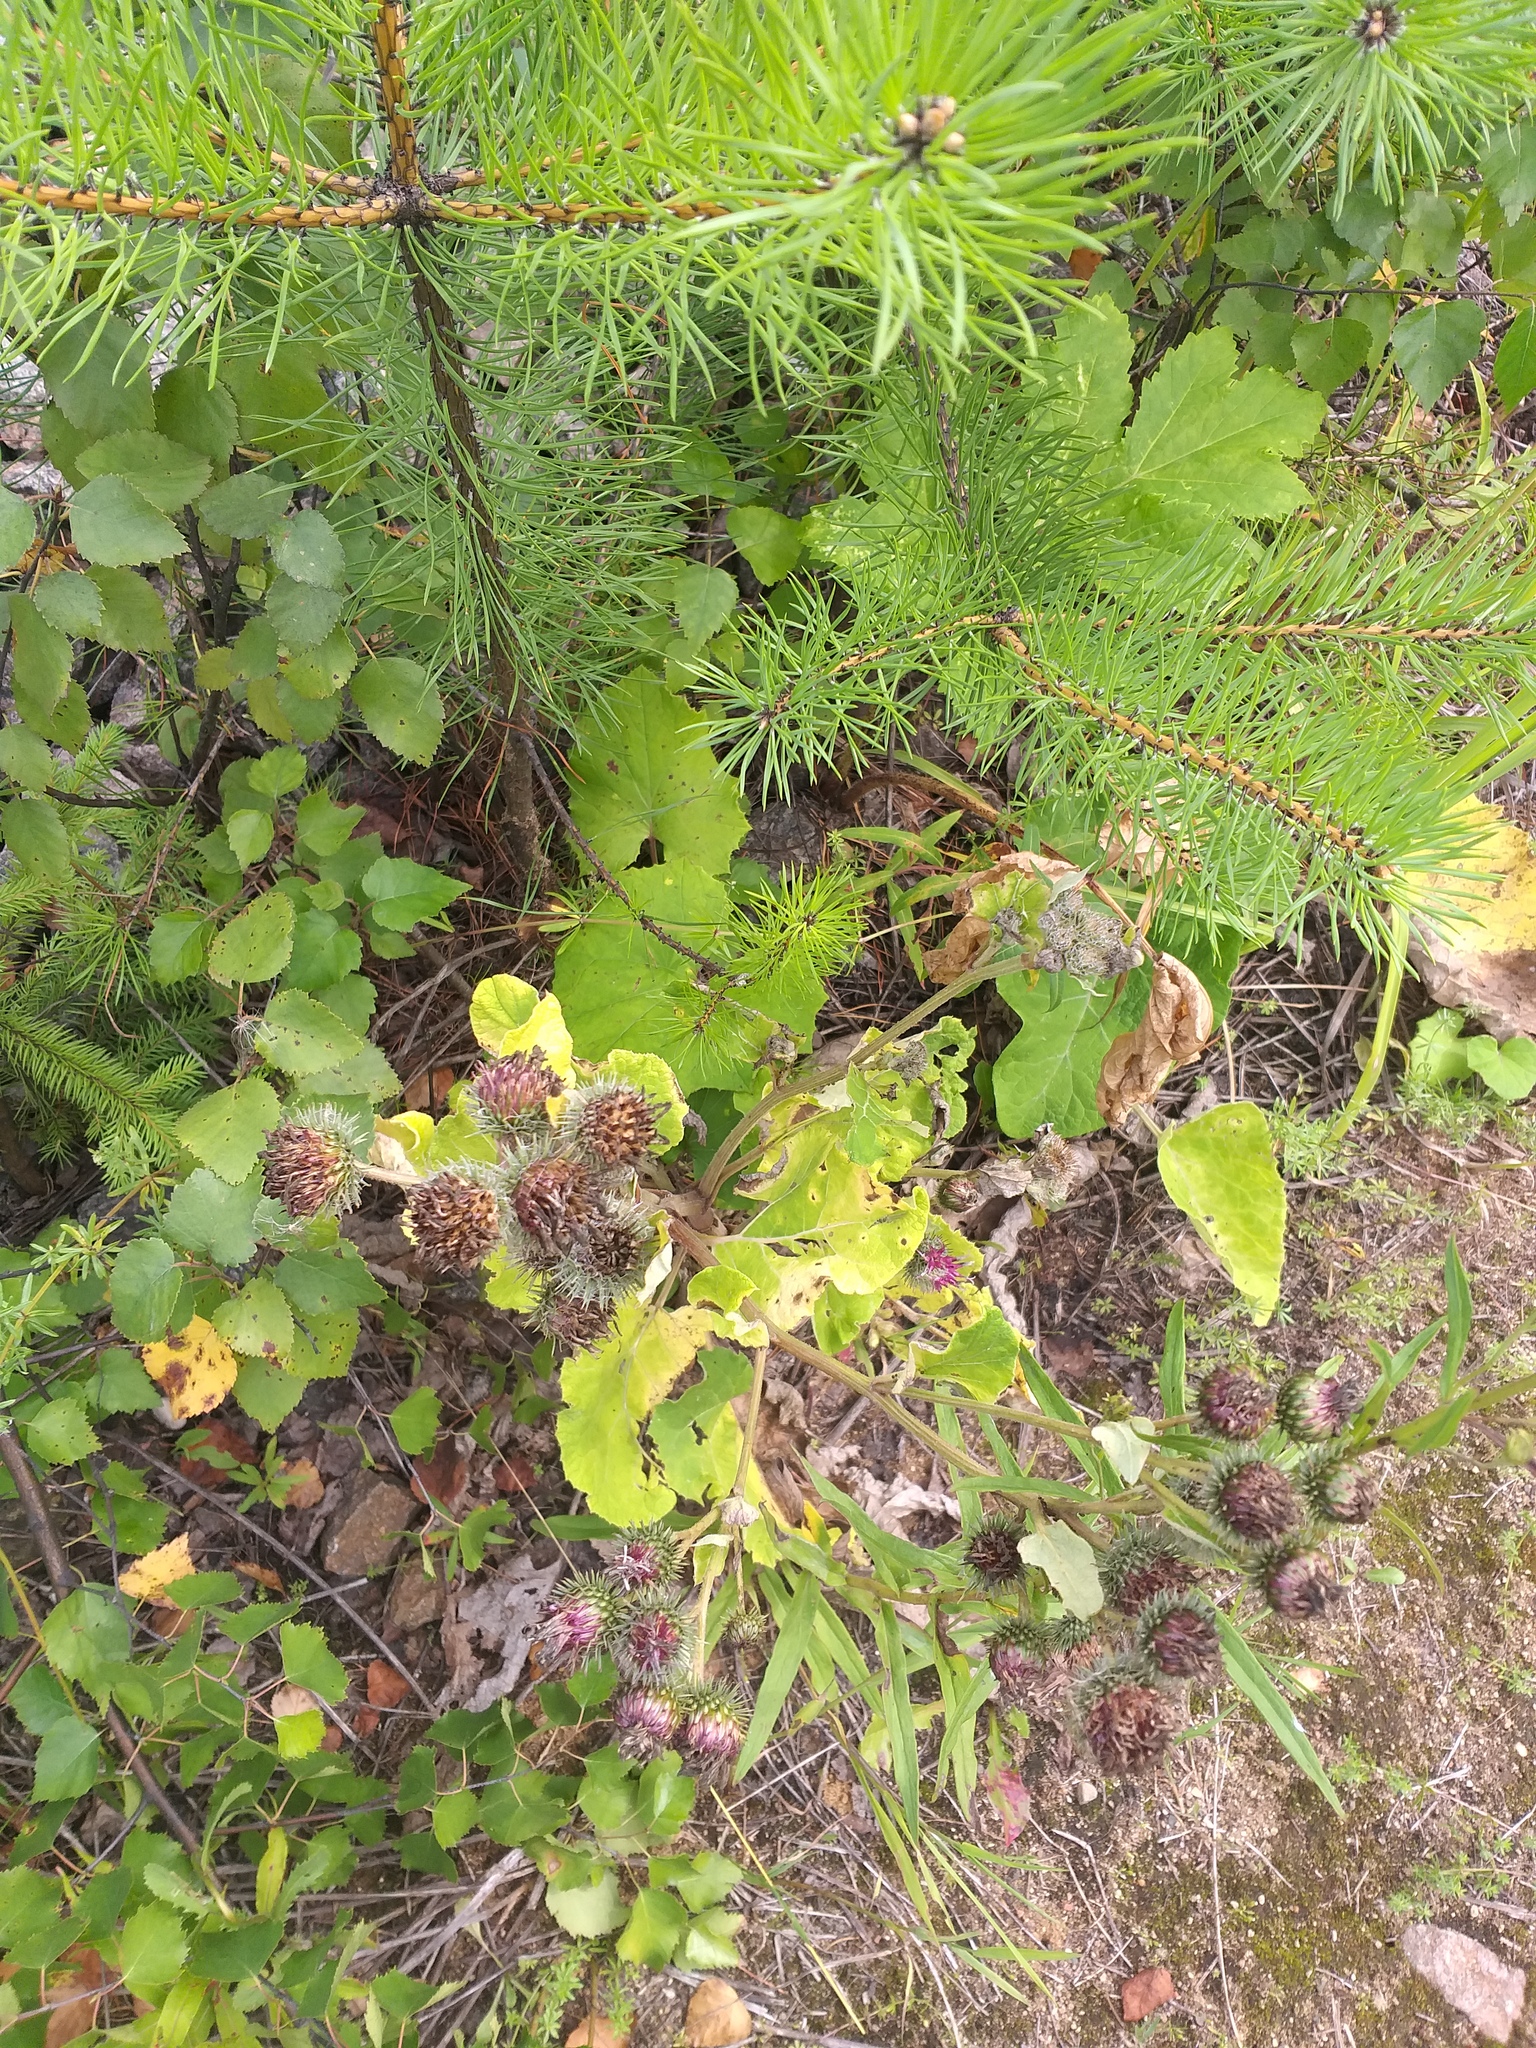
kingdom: Plantae
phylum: Tracheophyta
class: Magnoliopsida
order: Asterales
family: Asteraceae
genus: Arctium
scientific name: Arctium tomentosum
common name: Woolly burdock
